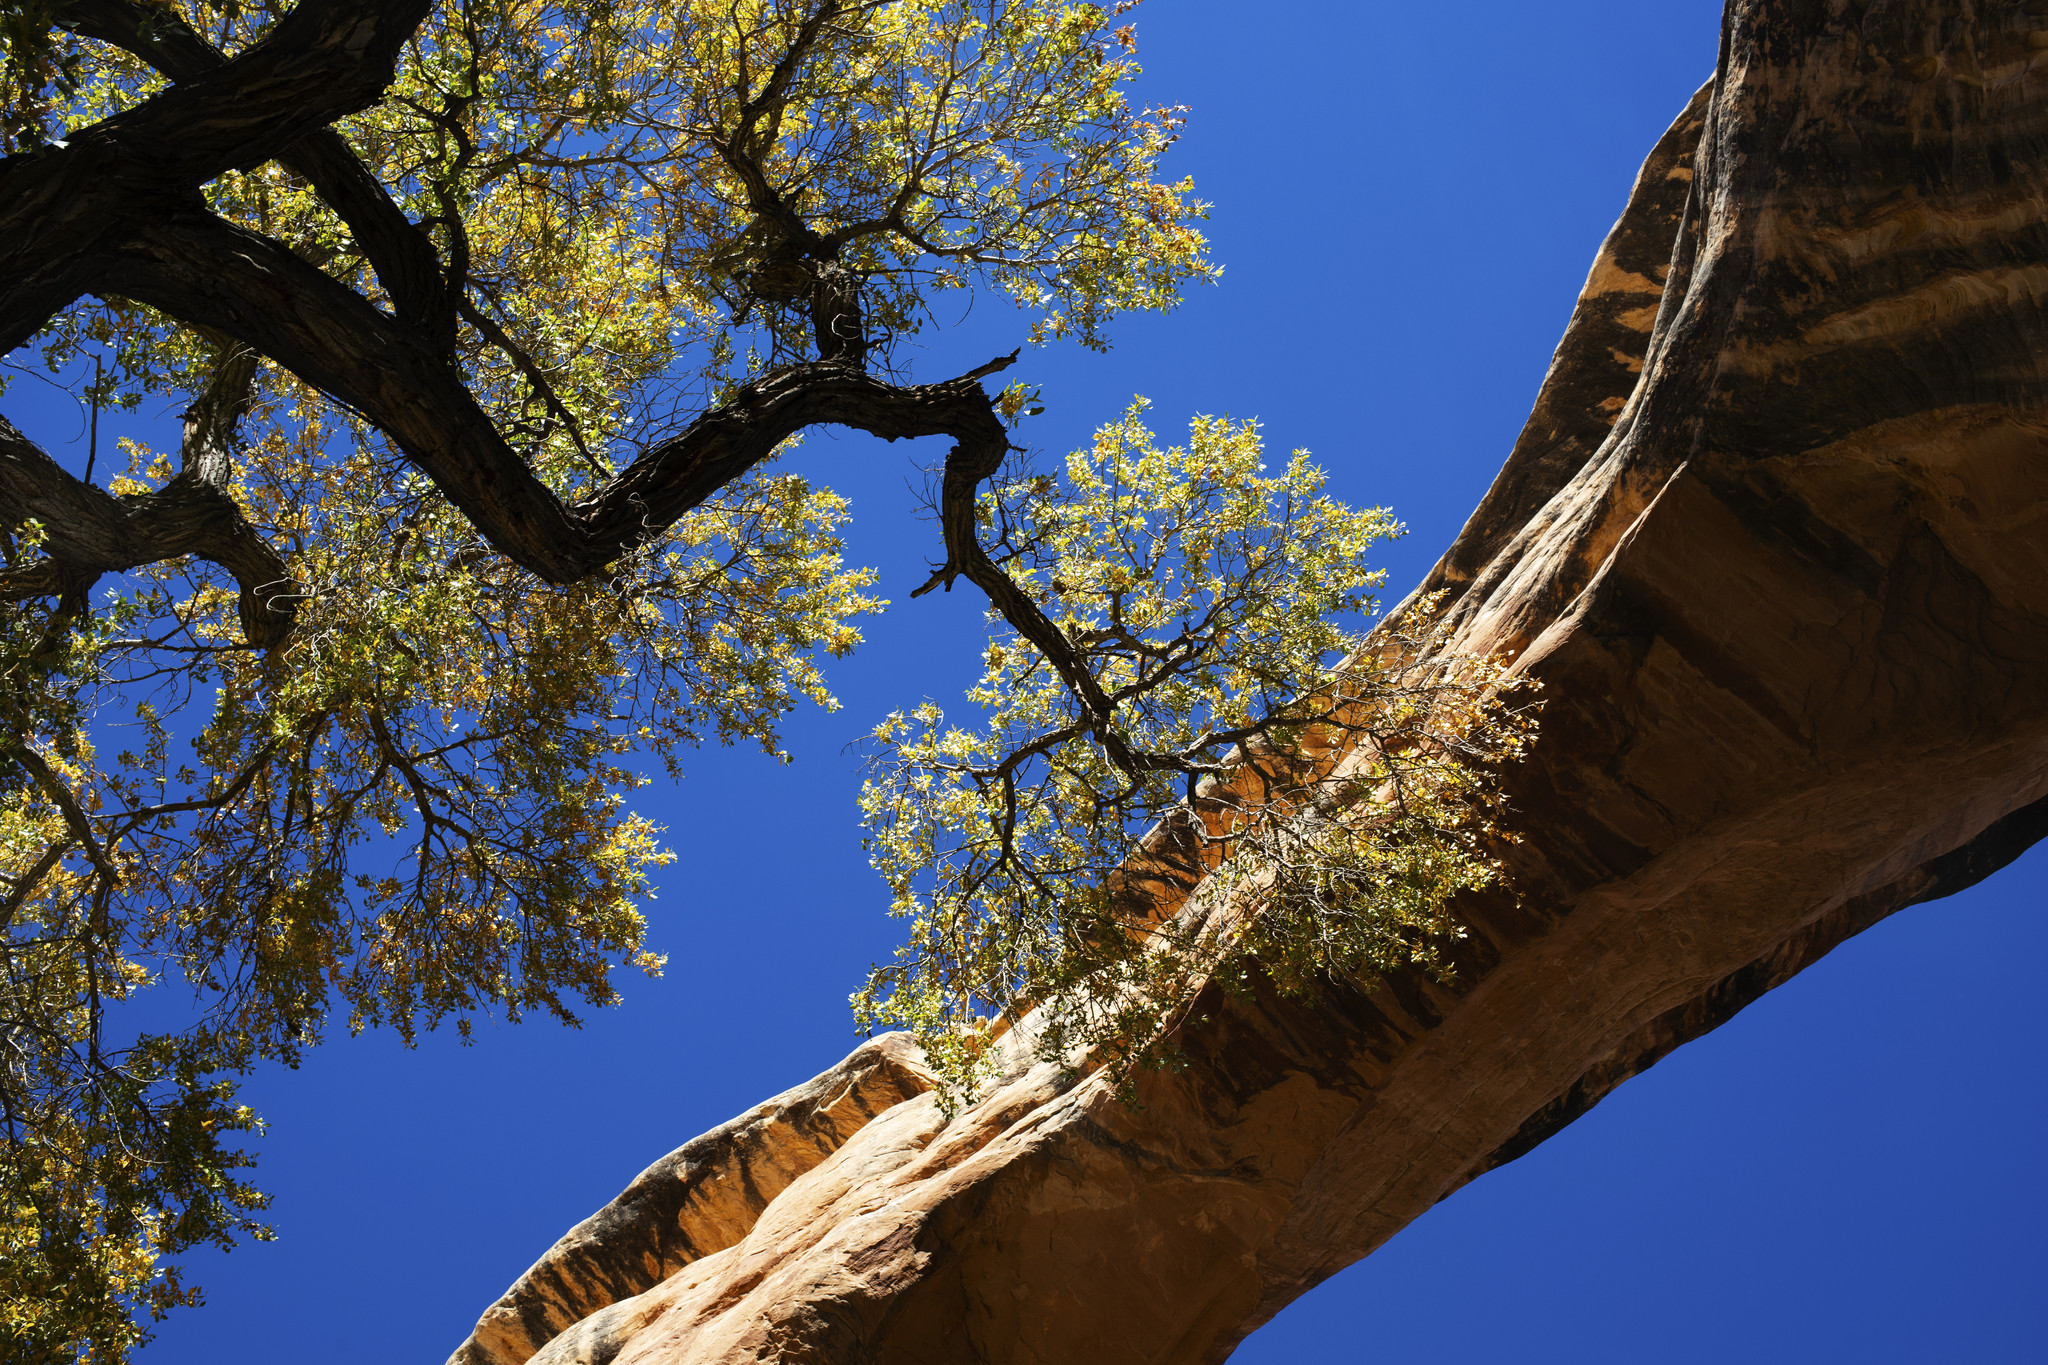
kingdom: Plantae
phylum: Tracheophyta
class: Magnoliopsida
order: Malpighiales
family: Salicaceae
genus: Populus
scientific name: Populus fremontii
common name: Fremont's cottonwood
